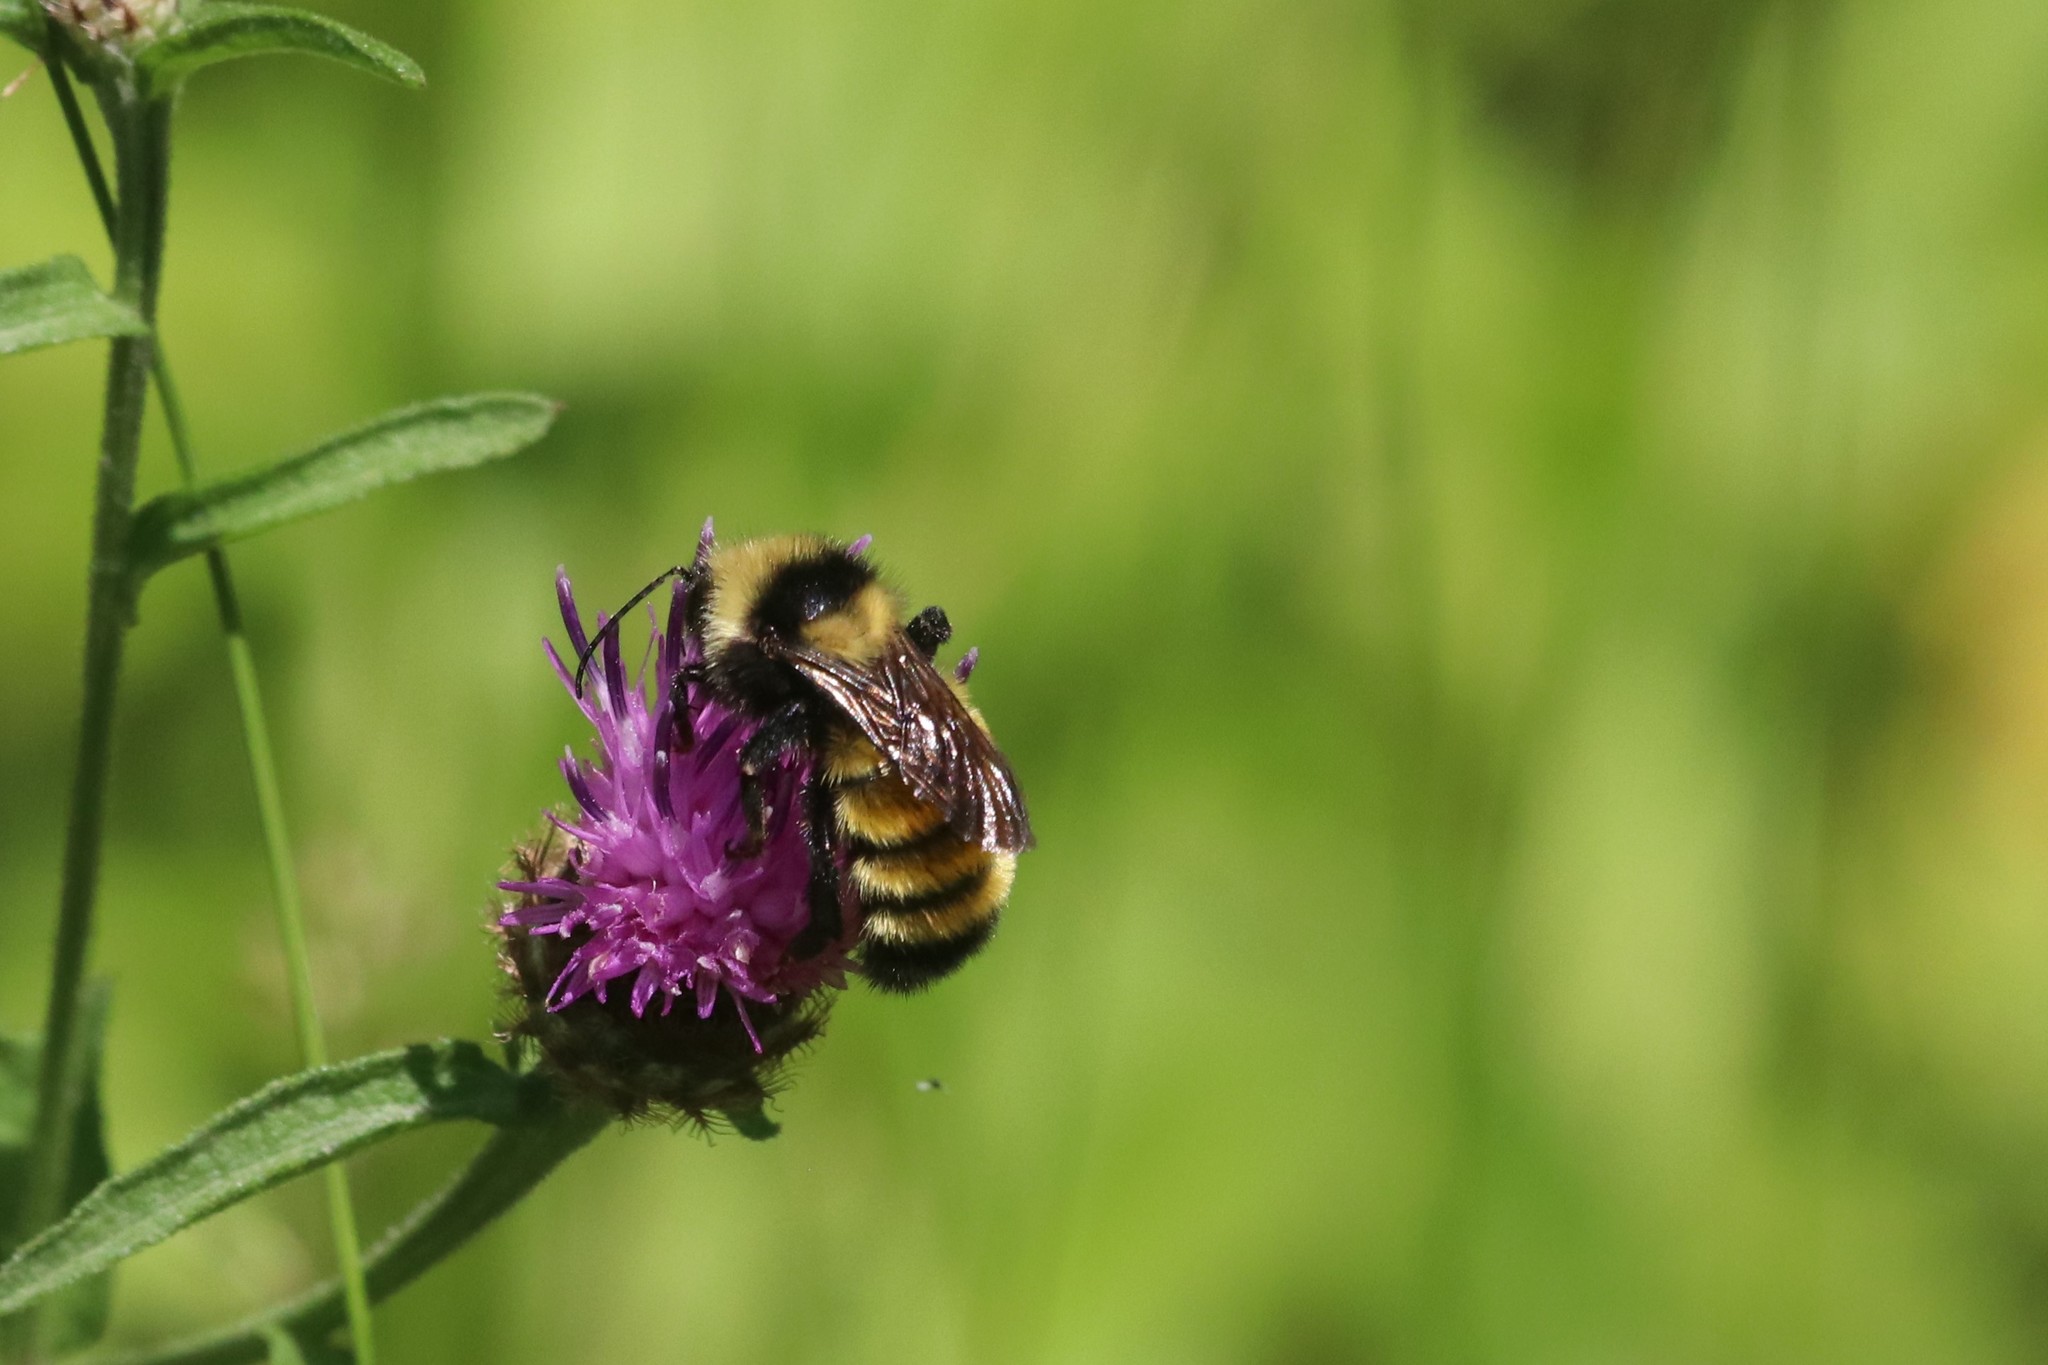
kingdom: Animalia
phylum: Arthropoda
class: Insecta
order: Hymenoptera
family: Apidae
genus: Bombus
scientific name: Bombus borealis
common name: Northern amber bumble bee
